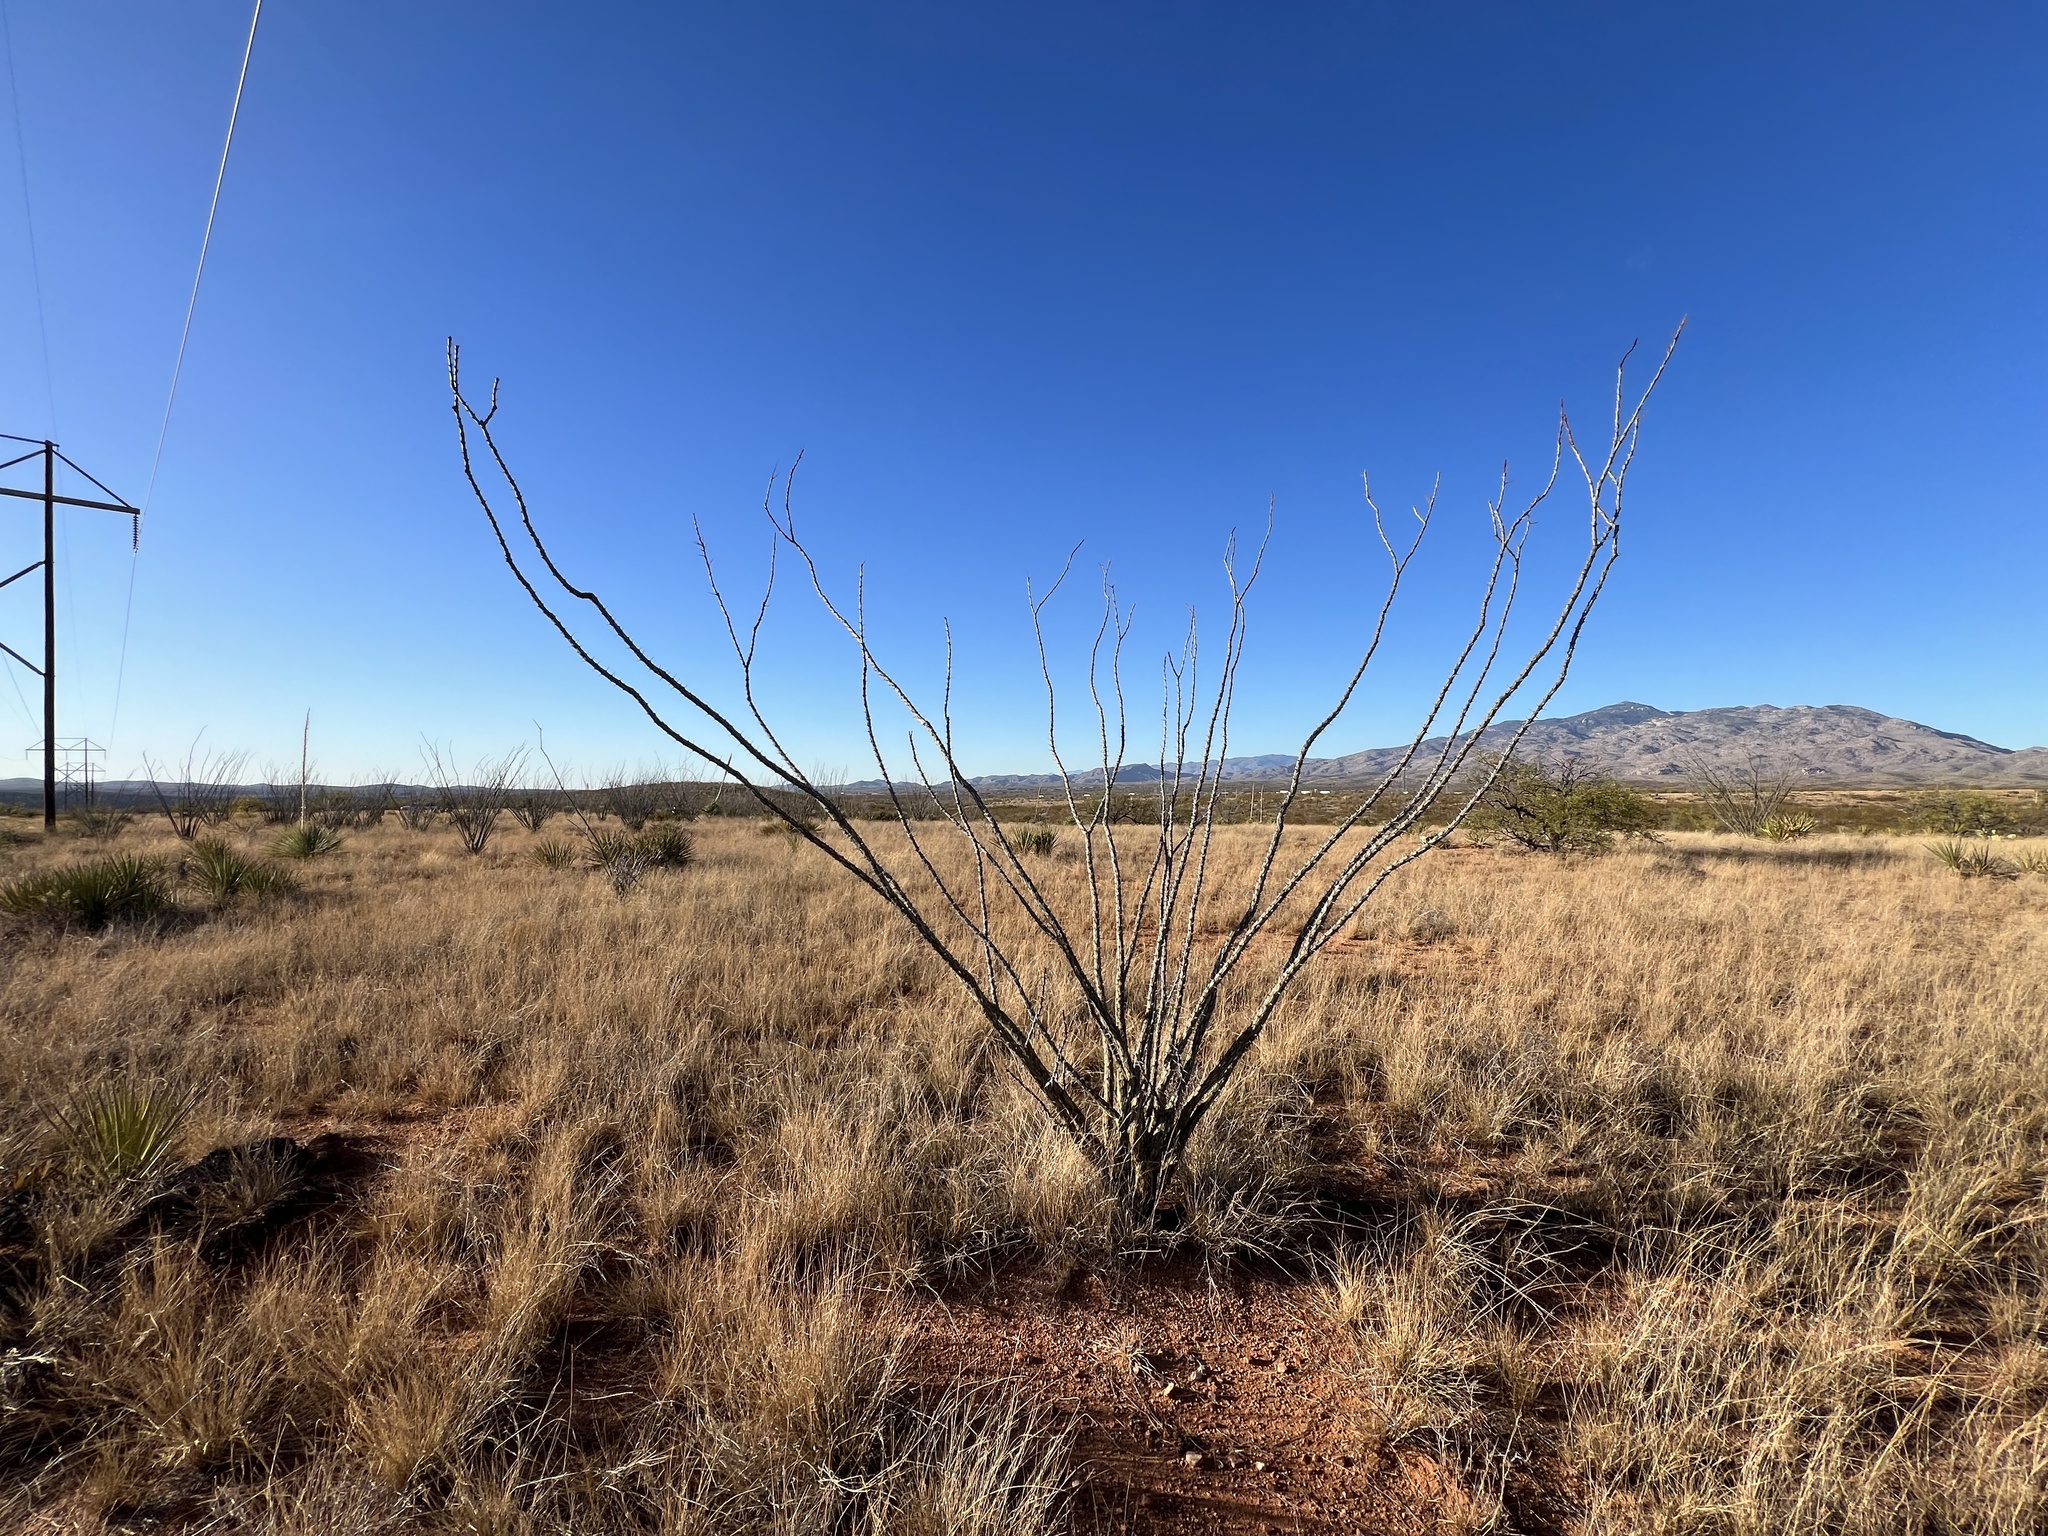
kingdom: Plantae
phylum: Tracheophyta
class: Magnoliopsida
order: Ericales
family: Fouquieriaceae
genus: Fouquieria
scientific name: Fouquieria splendens
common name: Vine-cactus
